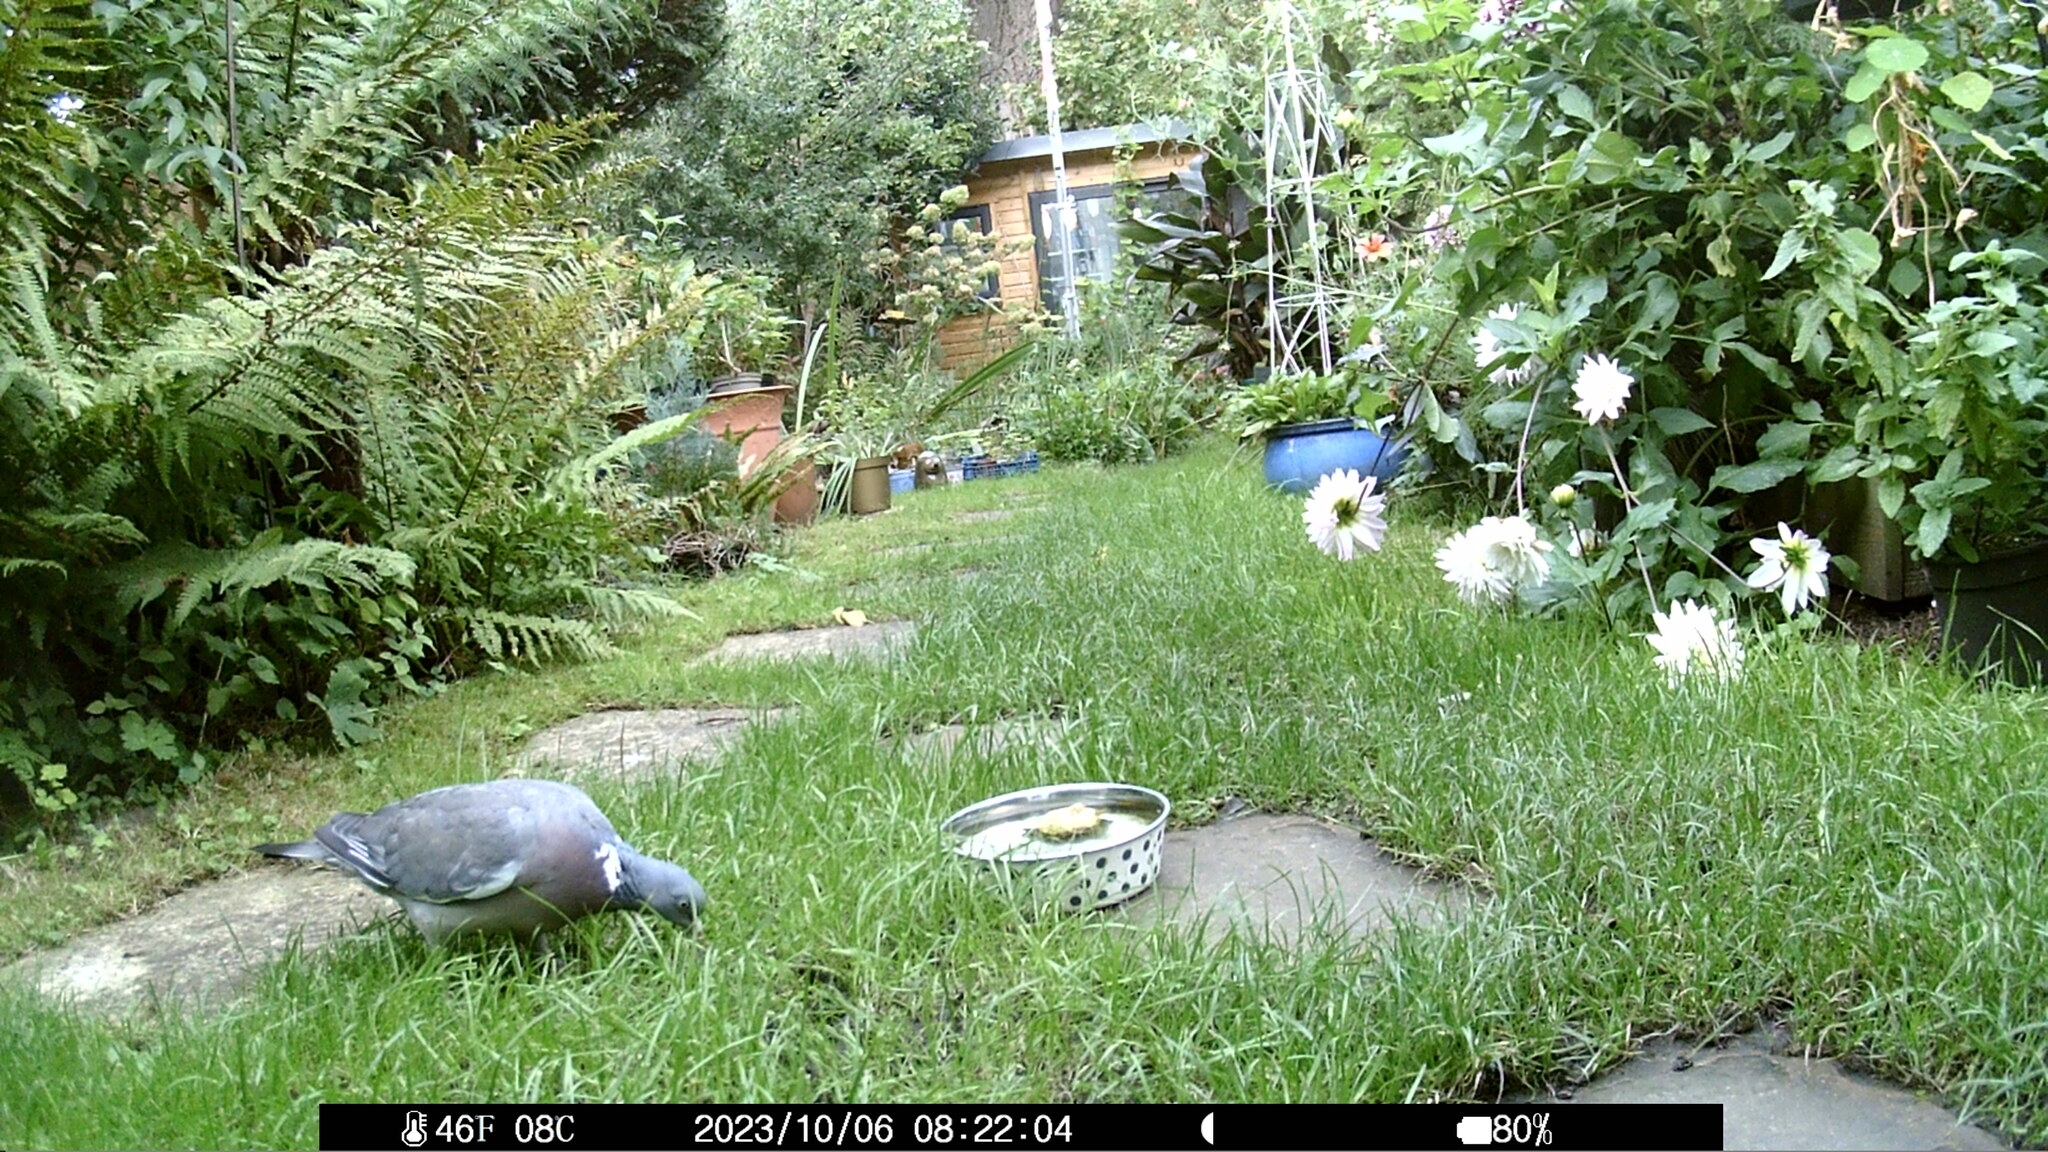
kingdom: Animalia
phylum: Chordata
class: Aves
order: Columbiformes
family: Columbidae
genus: Columba
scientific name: Columba palumbus
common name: Common wood pigeon
